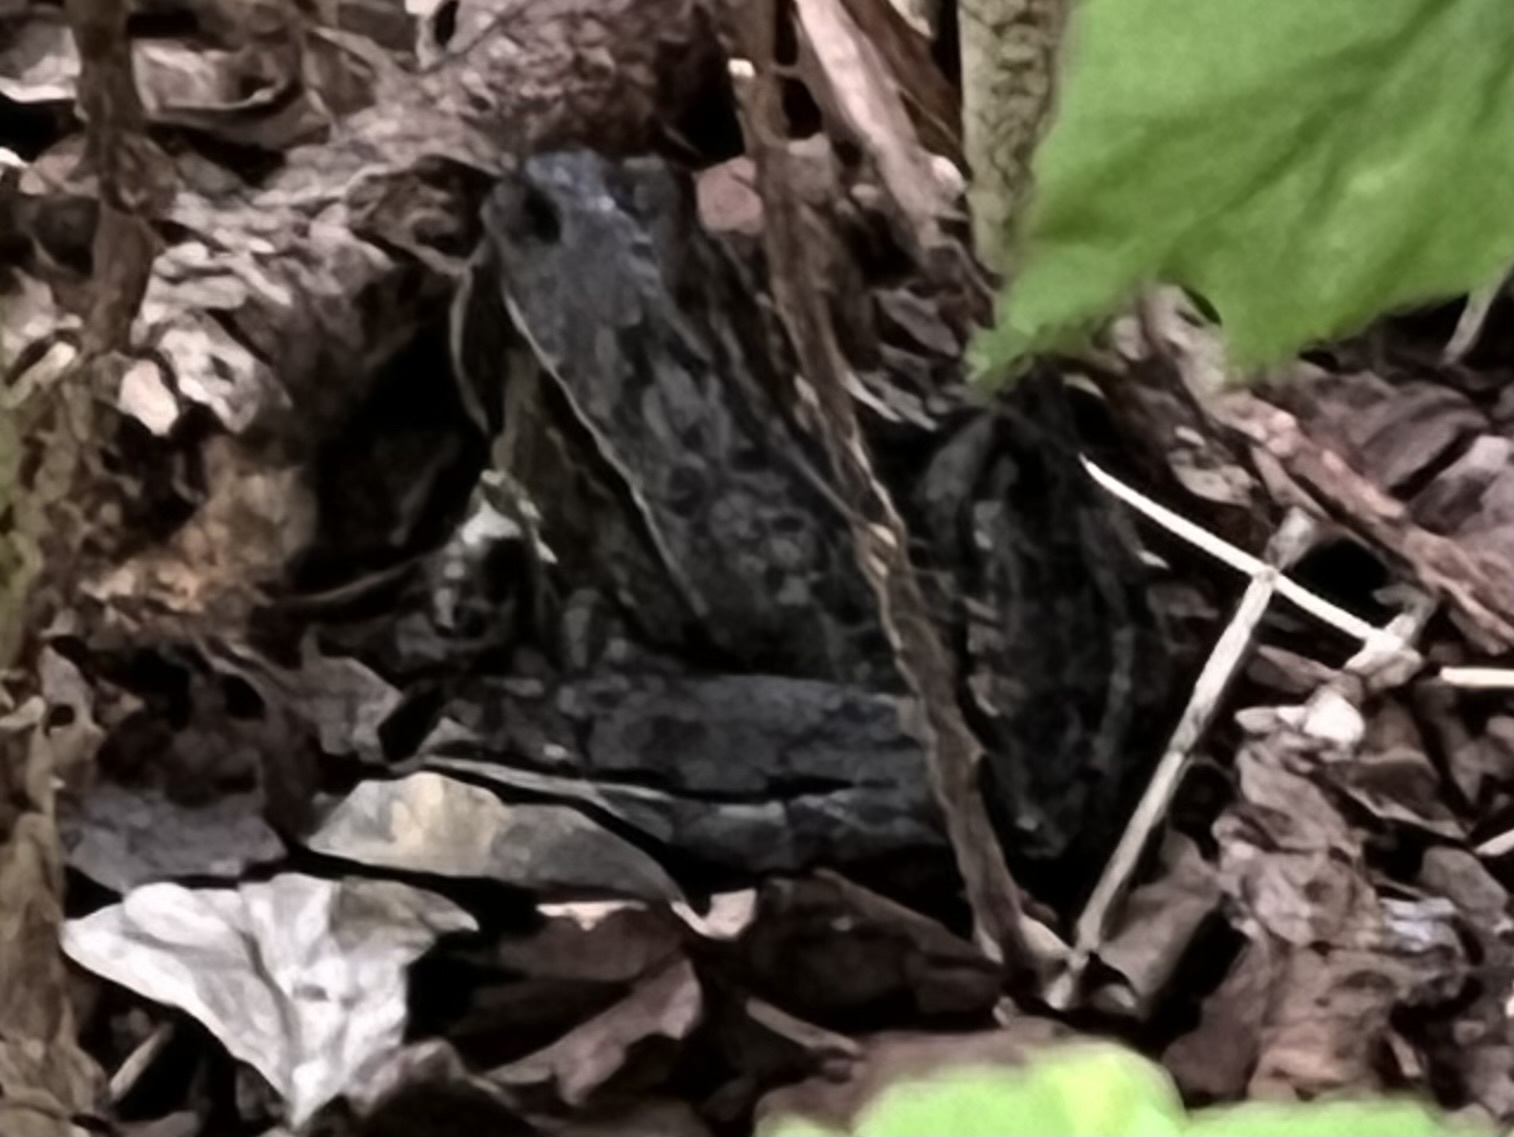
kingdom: Animalia
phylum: Chordata
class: Amphibia
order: Anura
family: Ranidae
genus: Rana
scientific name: Rana temporaria
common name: Common frog
